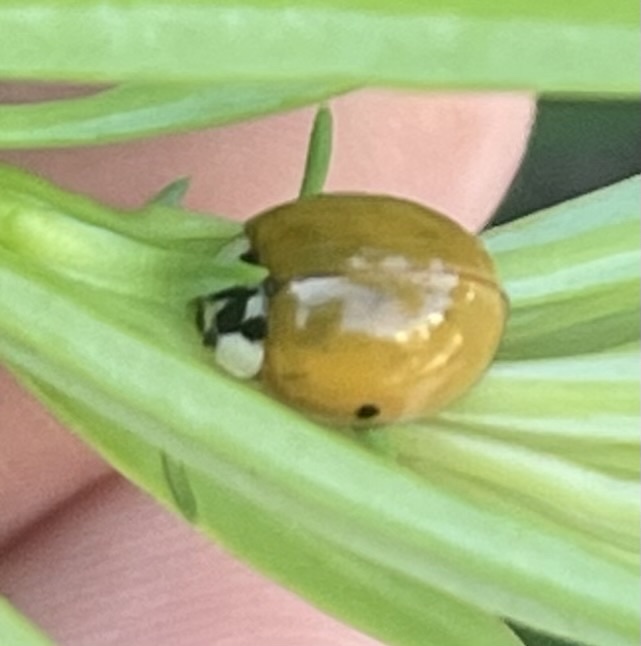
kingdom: Animalia
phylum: Arthropoda
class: Insecta
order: Coleoptera
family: Coccinellidae
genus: Harmonia
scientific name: Harmonia axyridis
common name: Harlequin ladybird
